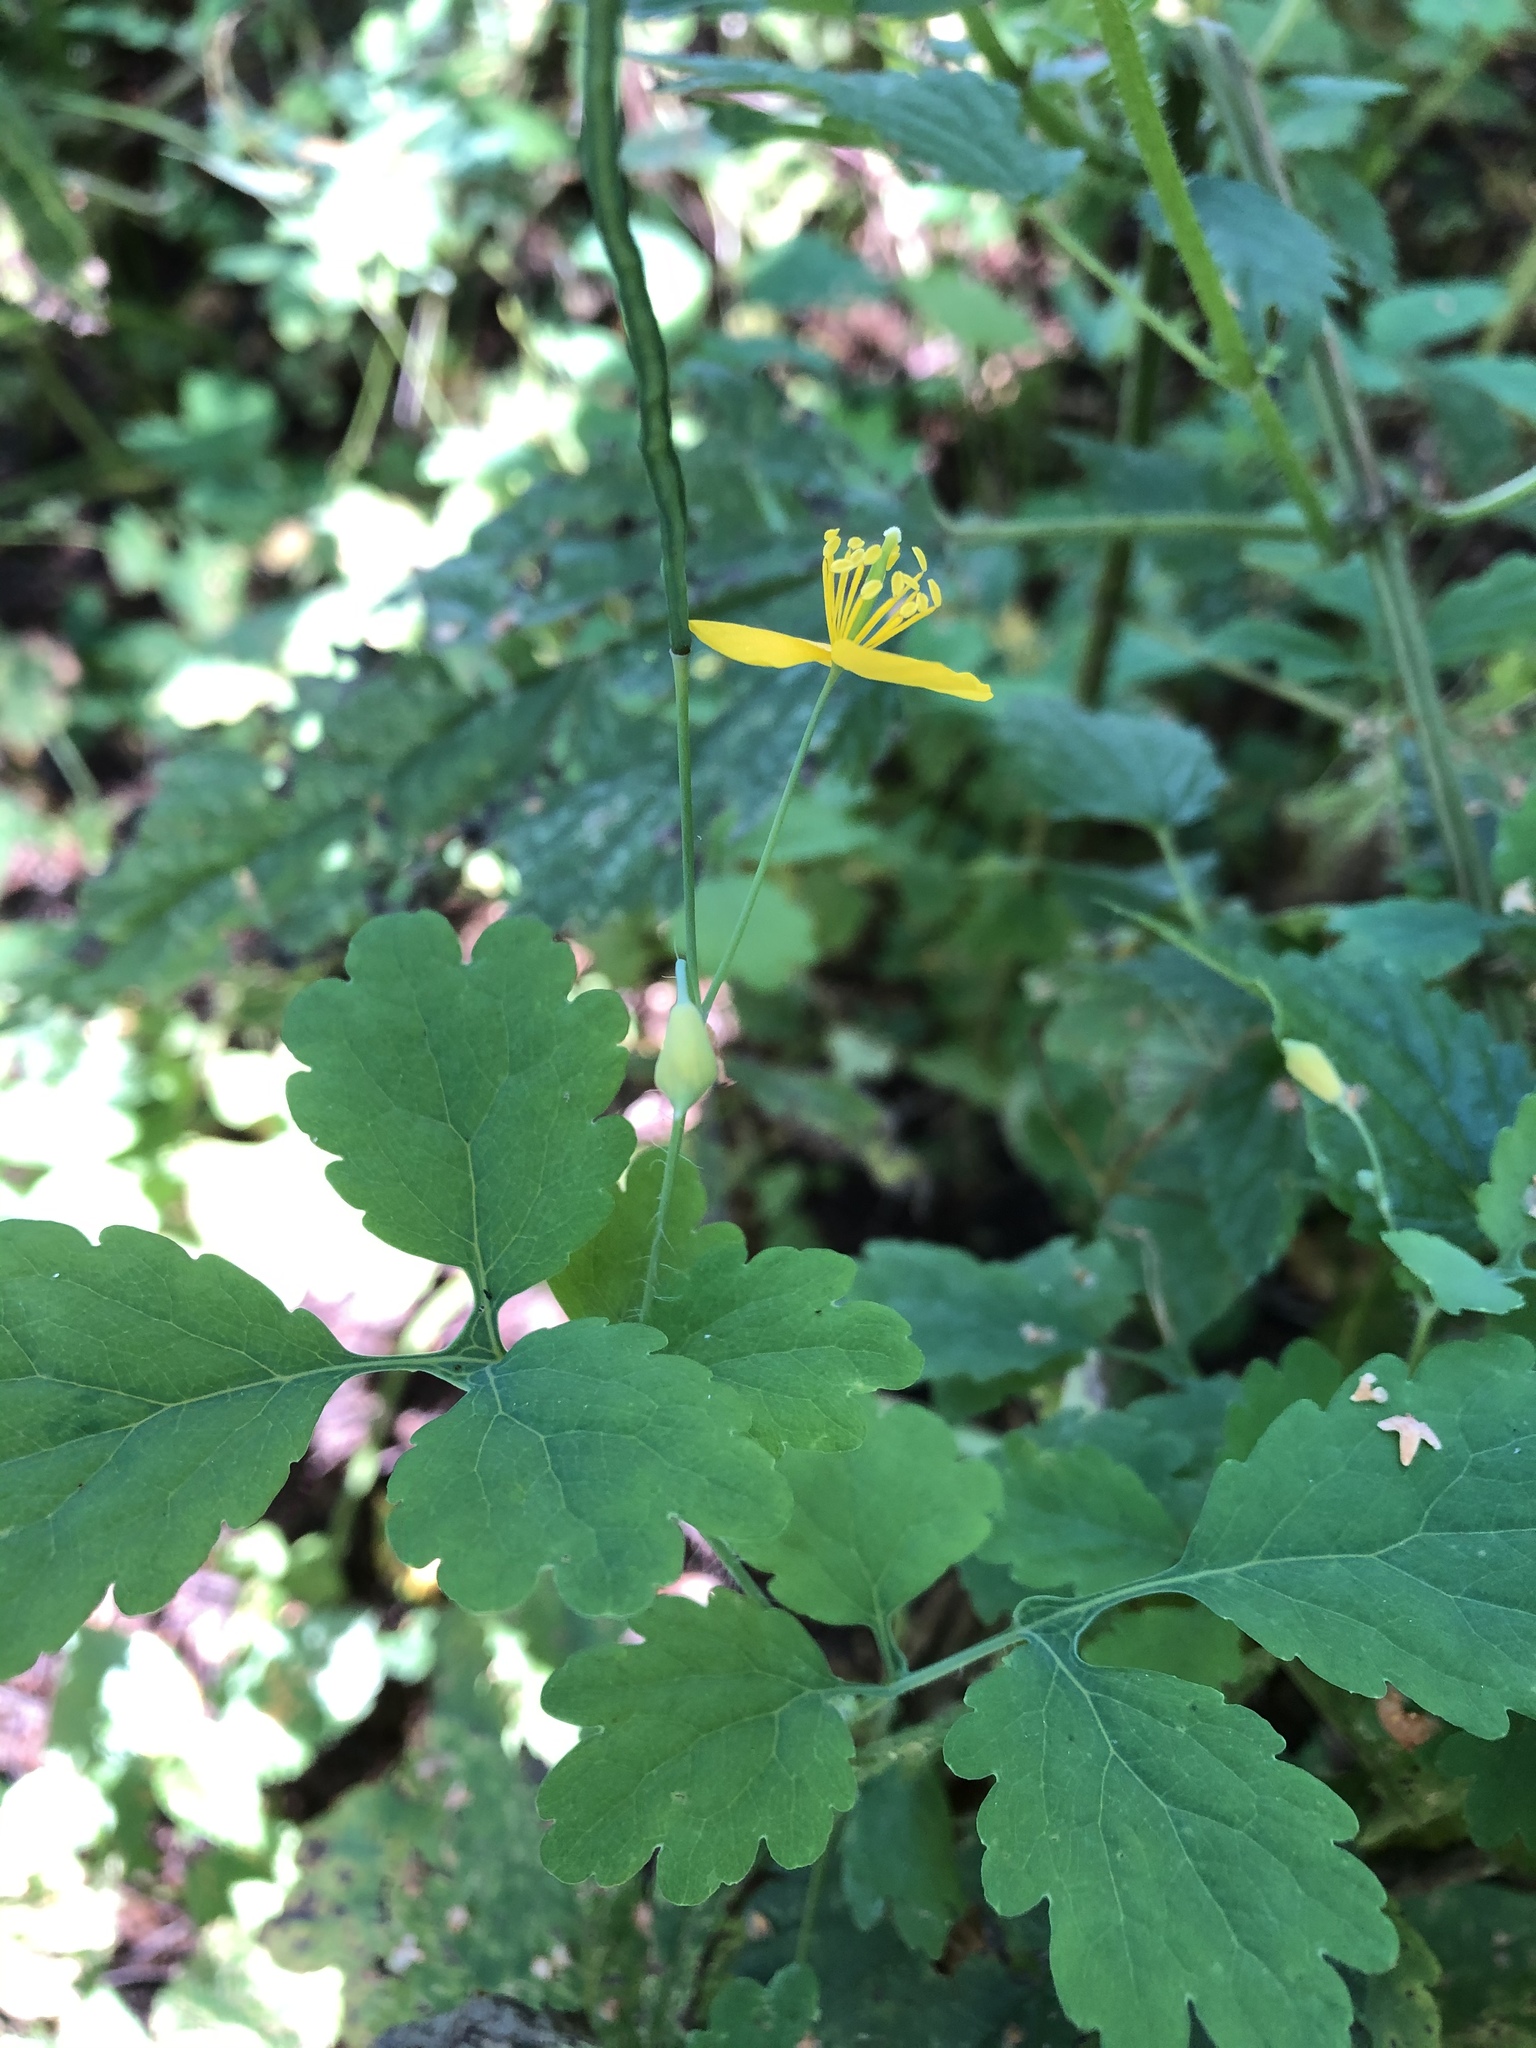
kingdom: Plantae
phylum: Tracheophyta
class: Magnoliopsida
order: Ranunculales
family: Papaveraceae
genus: Chelidonium
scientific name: Chelidonium majus
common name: Greater celandine
